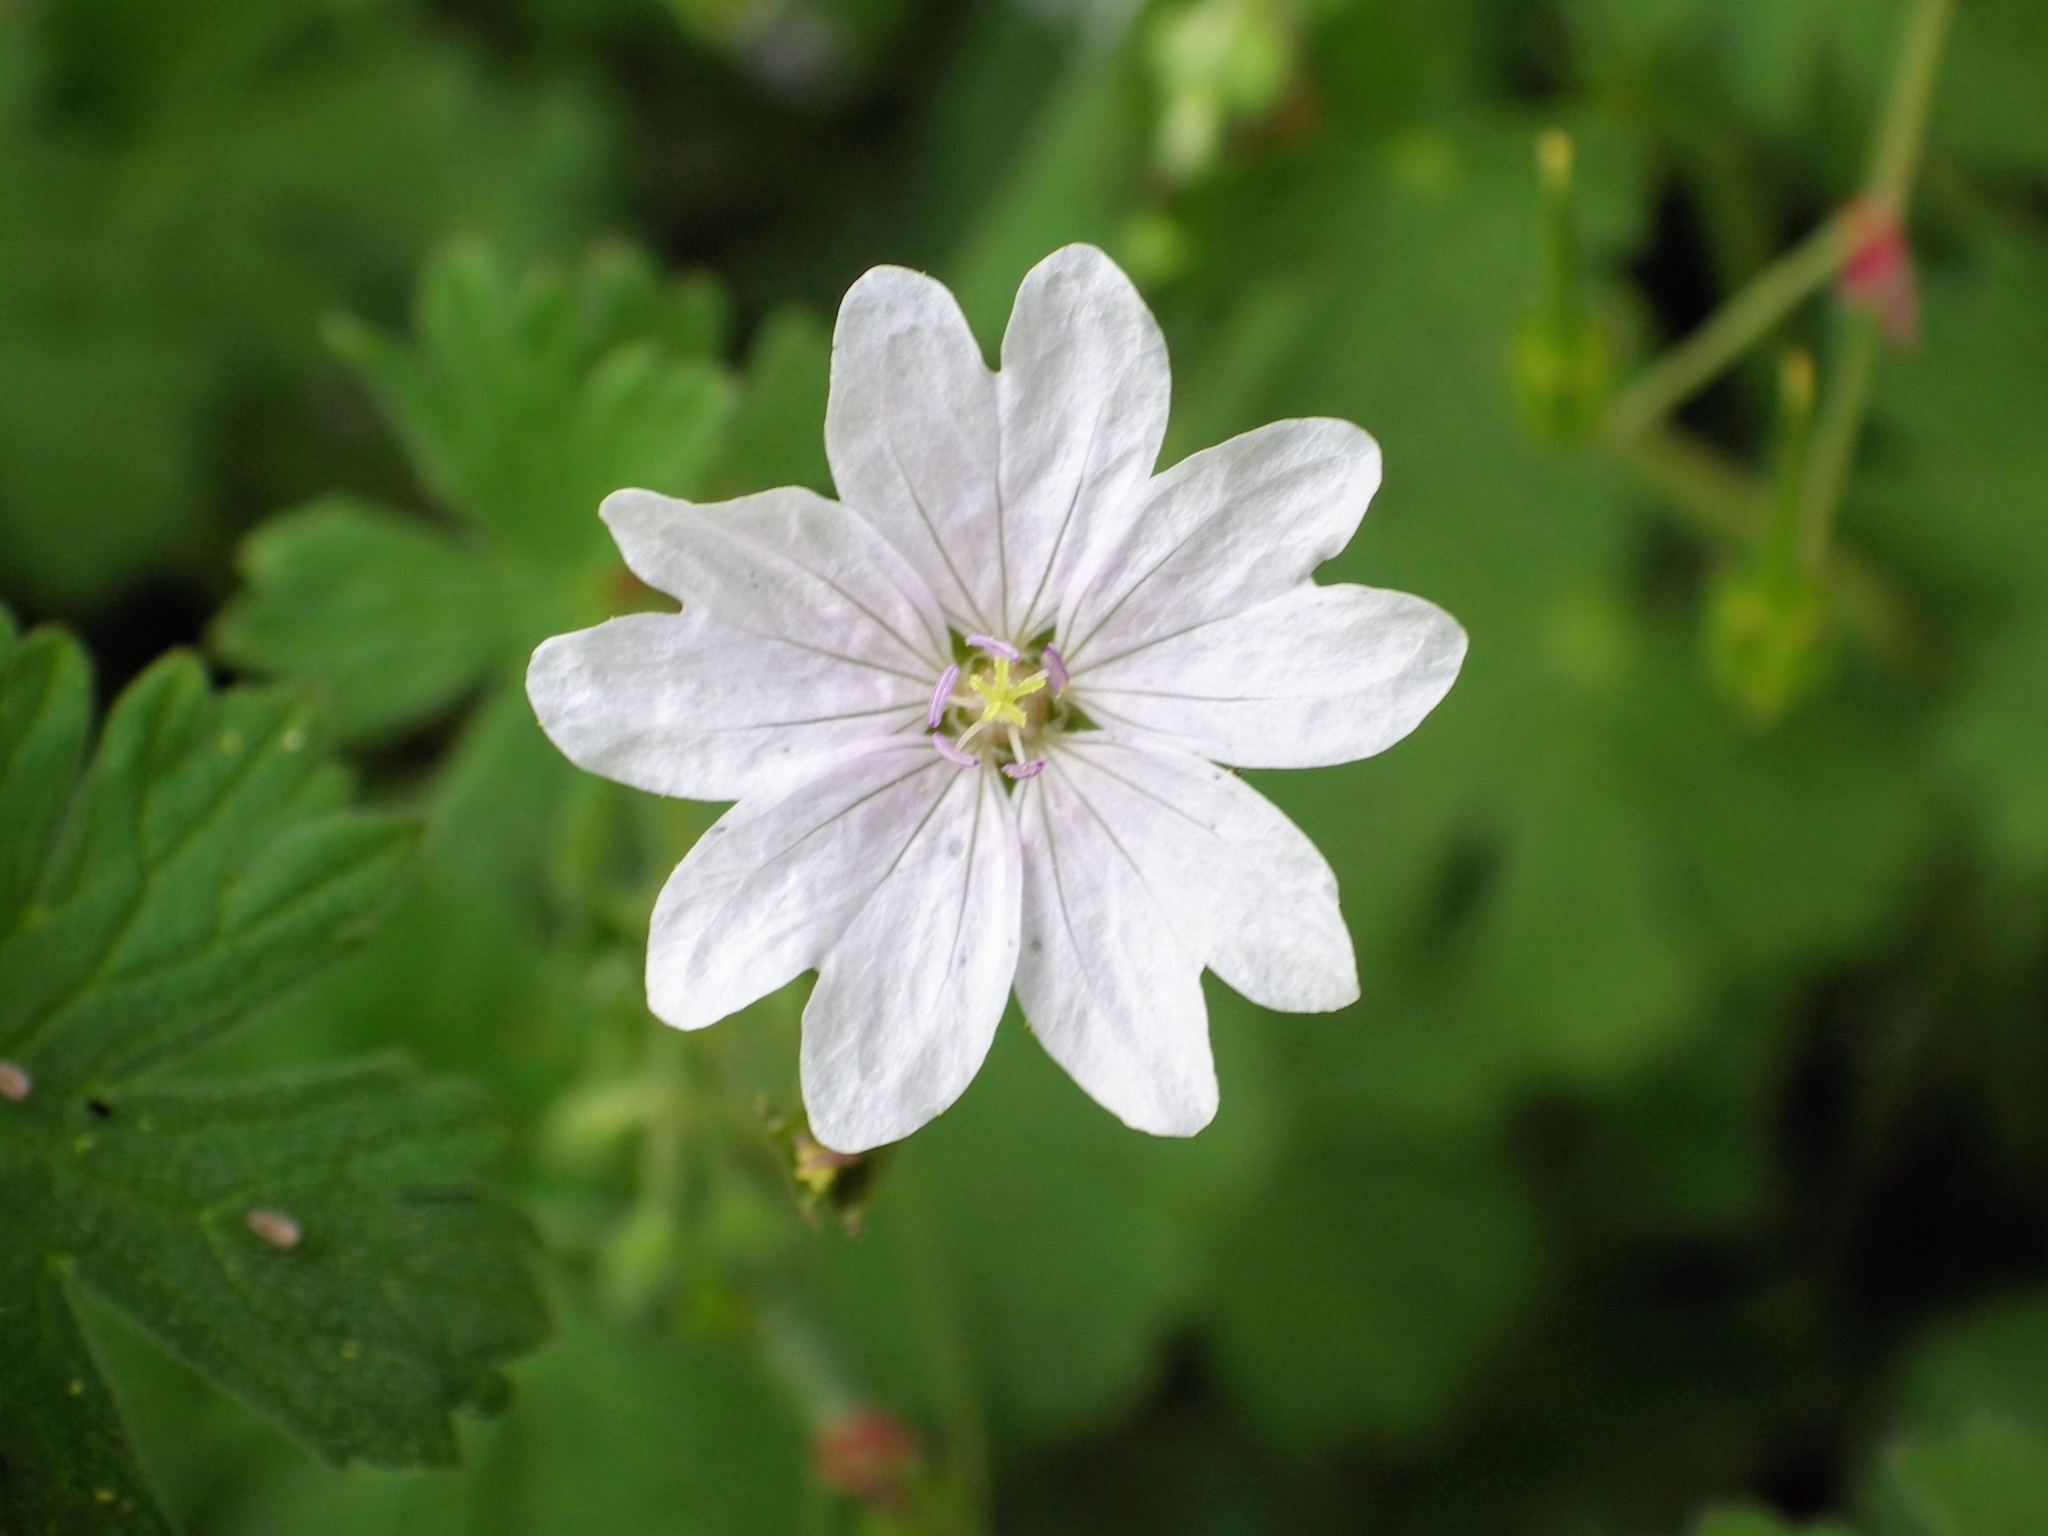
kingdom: Plantae
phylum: Tracheophyta
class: Magnoliopsida
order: Geraniales
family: Geraniaceae
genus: Geranium
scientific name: Geranium pyrenaicum
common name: Hedgerow crane's-bill
